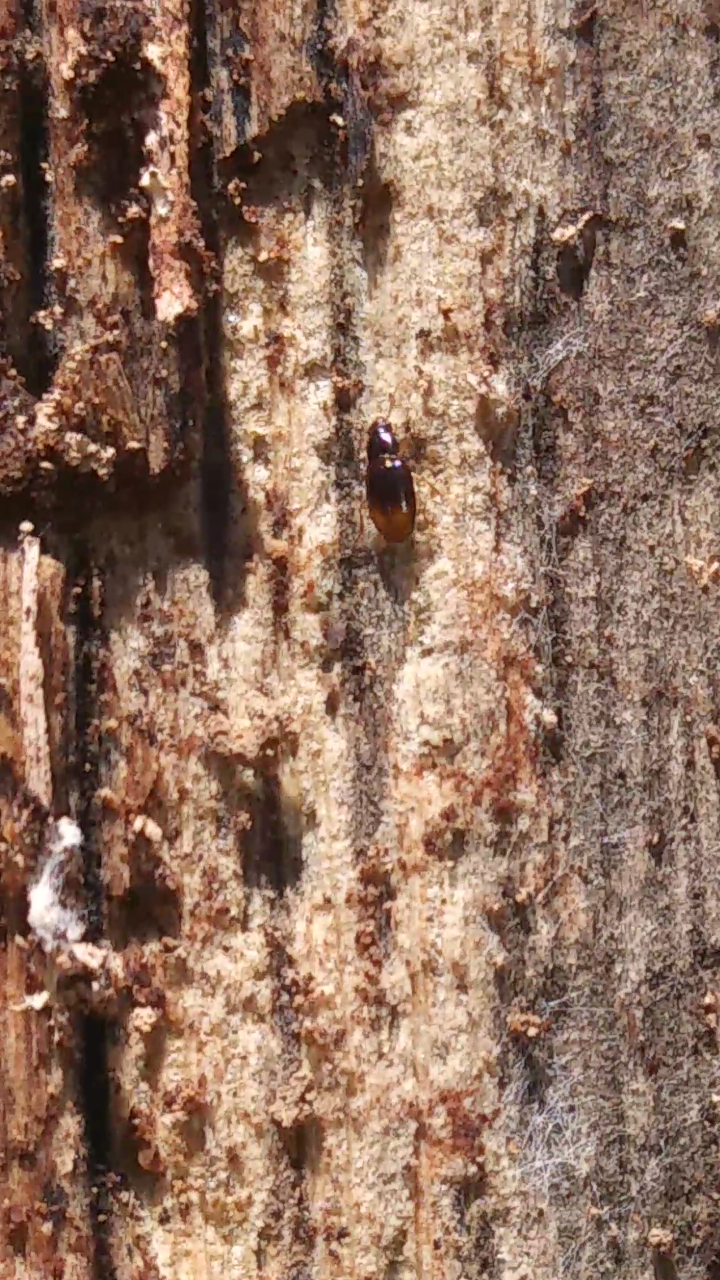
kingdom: Animalia
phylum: Arthropoda
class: Insecta
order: Coleoptera
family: Carabidae
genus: Mioptachys
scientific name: Mioptachys flavicauda
